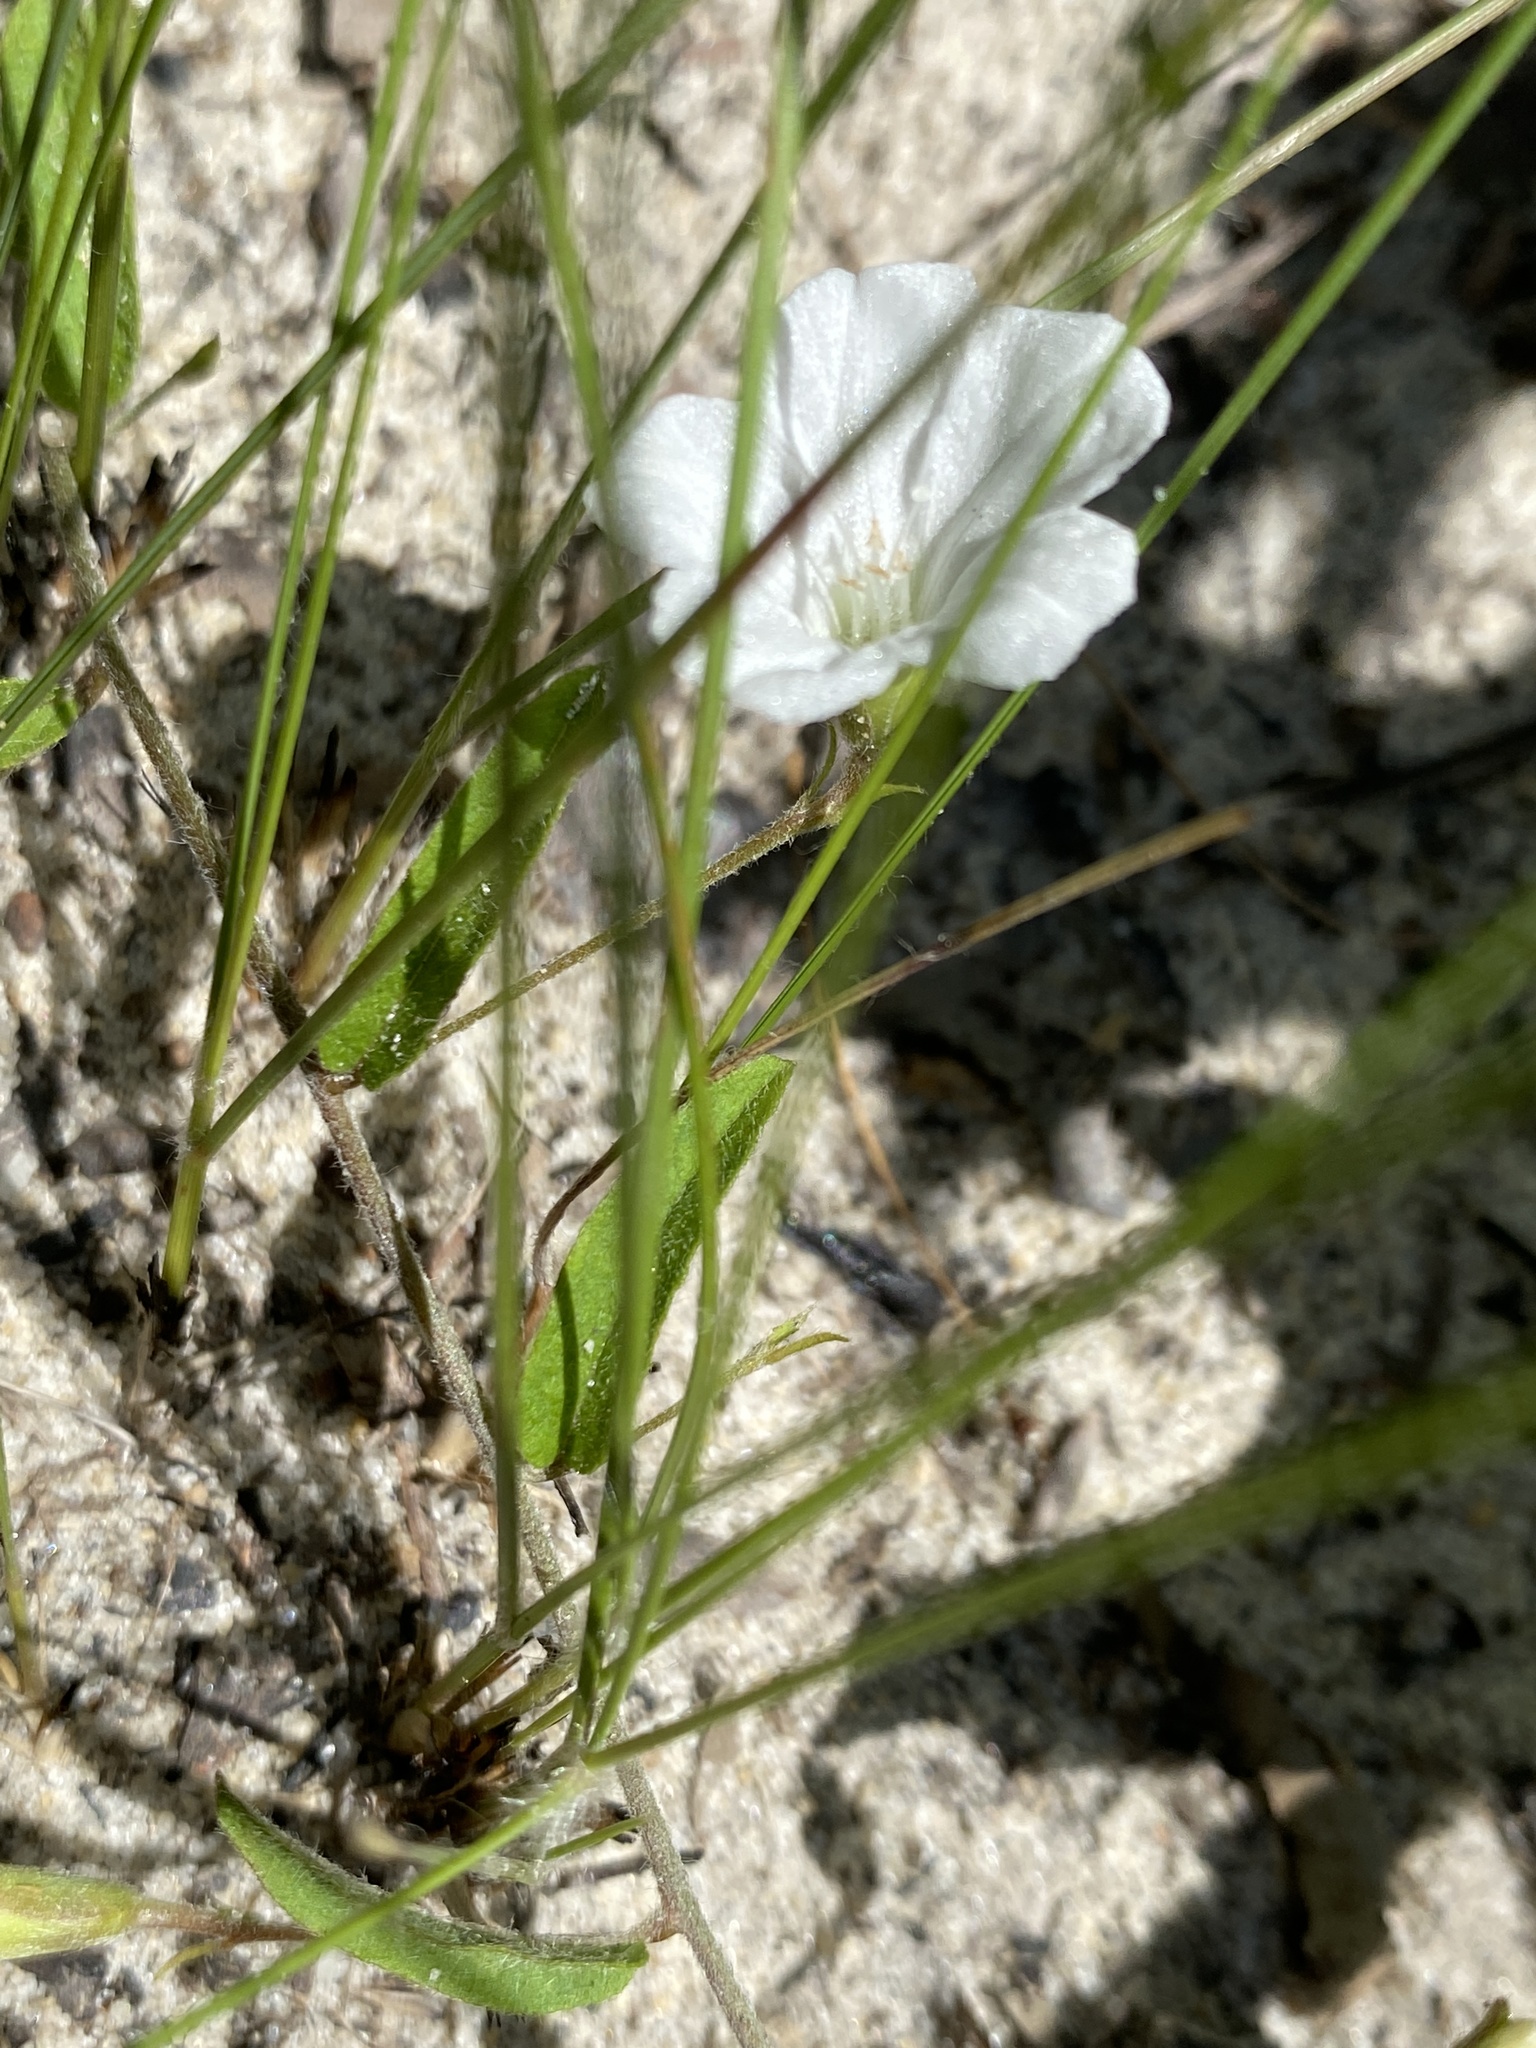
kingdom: Plantae
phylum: Tracheophyta
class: Magnoliopsida
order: Solanales
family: Convolvulaceae
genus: Stylisma
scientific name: Stylisma patens
